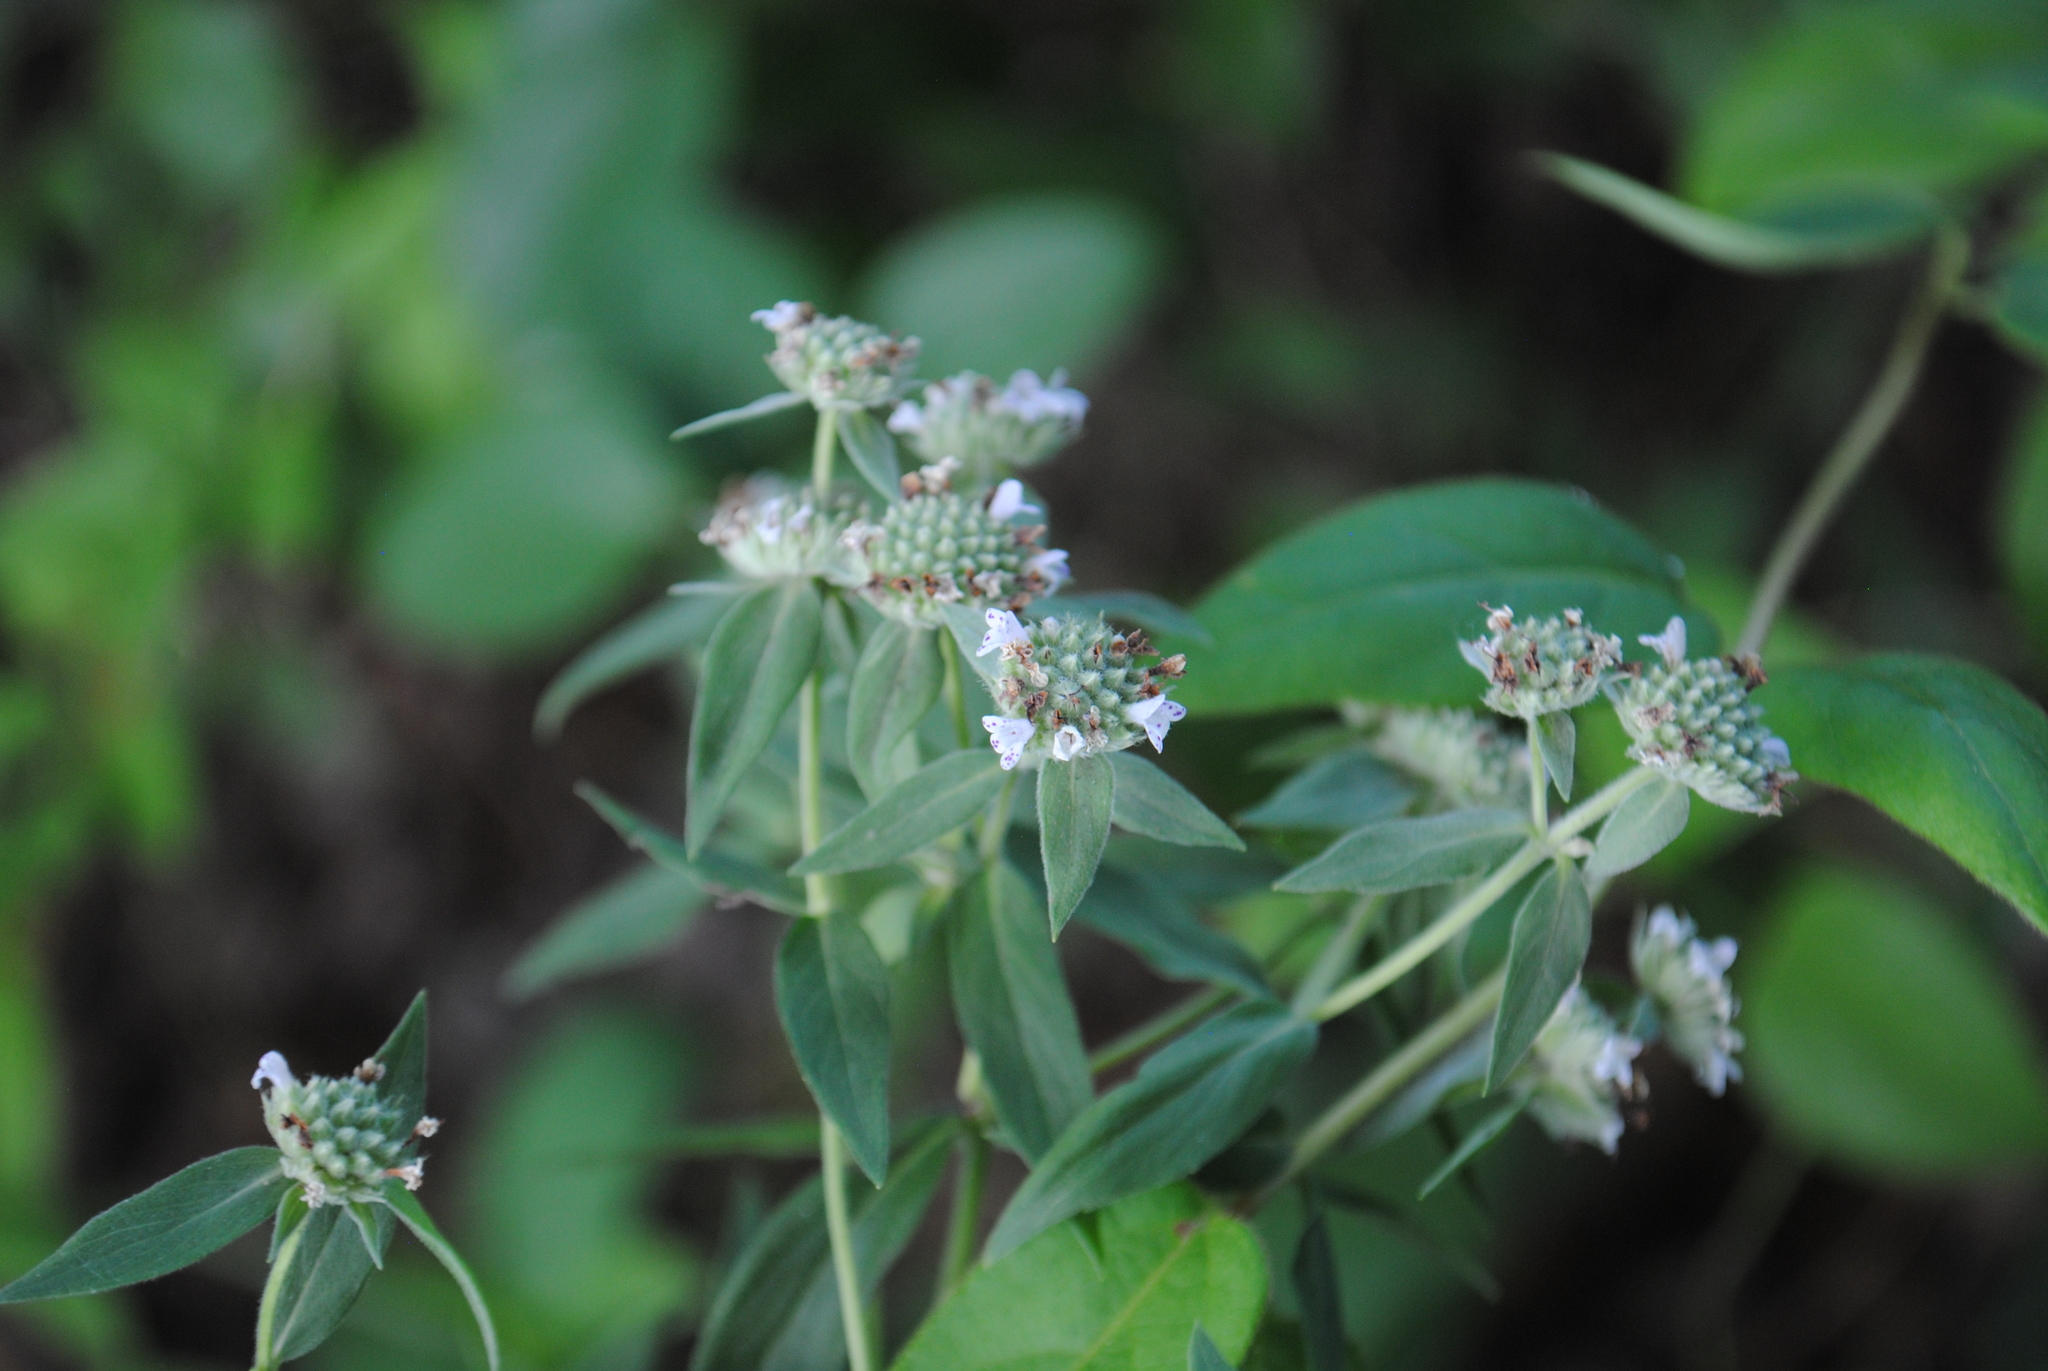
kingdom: Plantae
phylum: Tracheophyta
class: Magnoliopsida
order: Lamiales
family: Lamiaceae
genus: Pycnanthemum
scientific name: Pycnanthemum verticillatum
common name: Whorled mountain-mint
